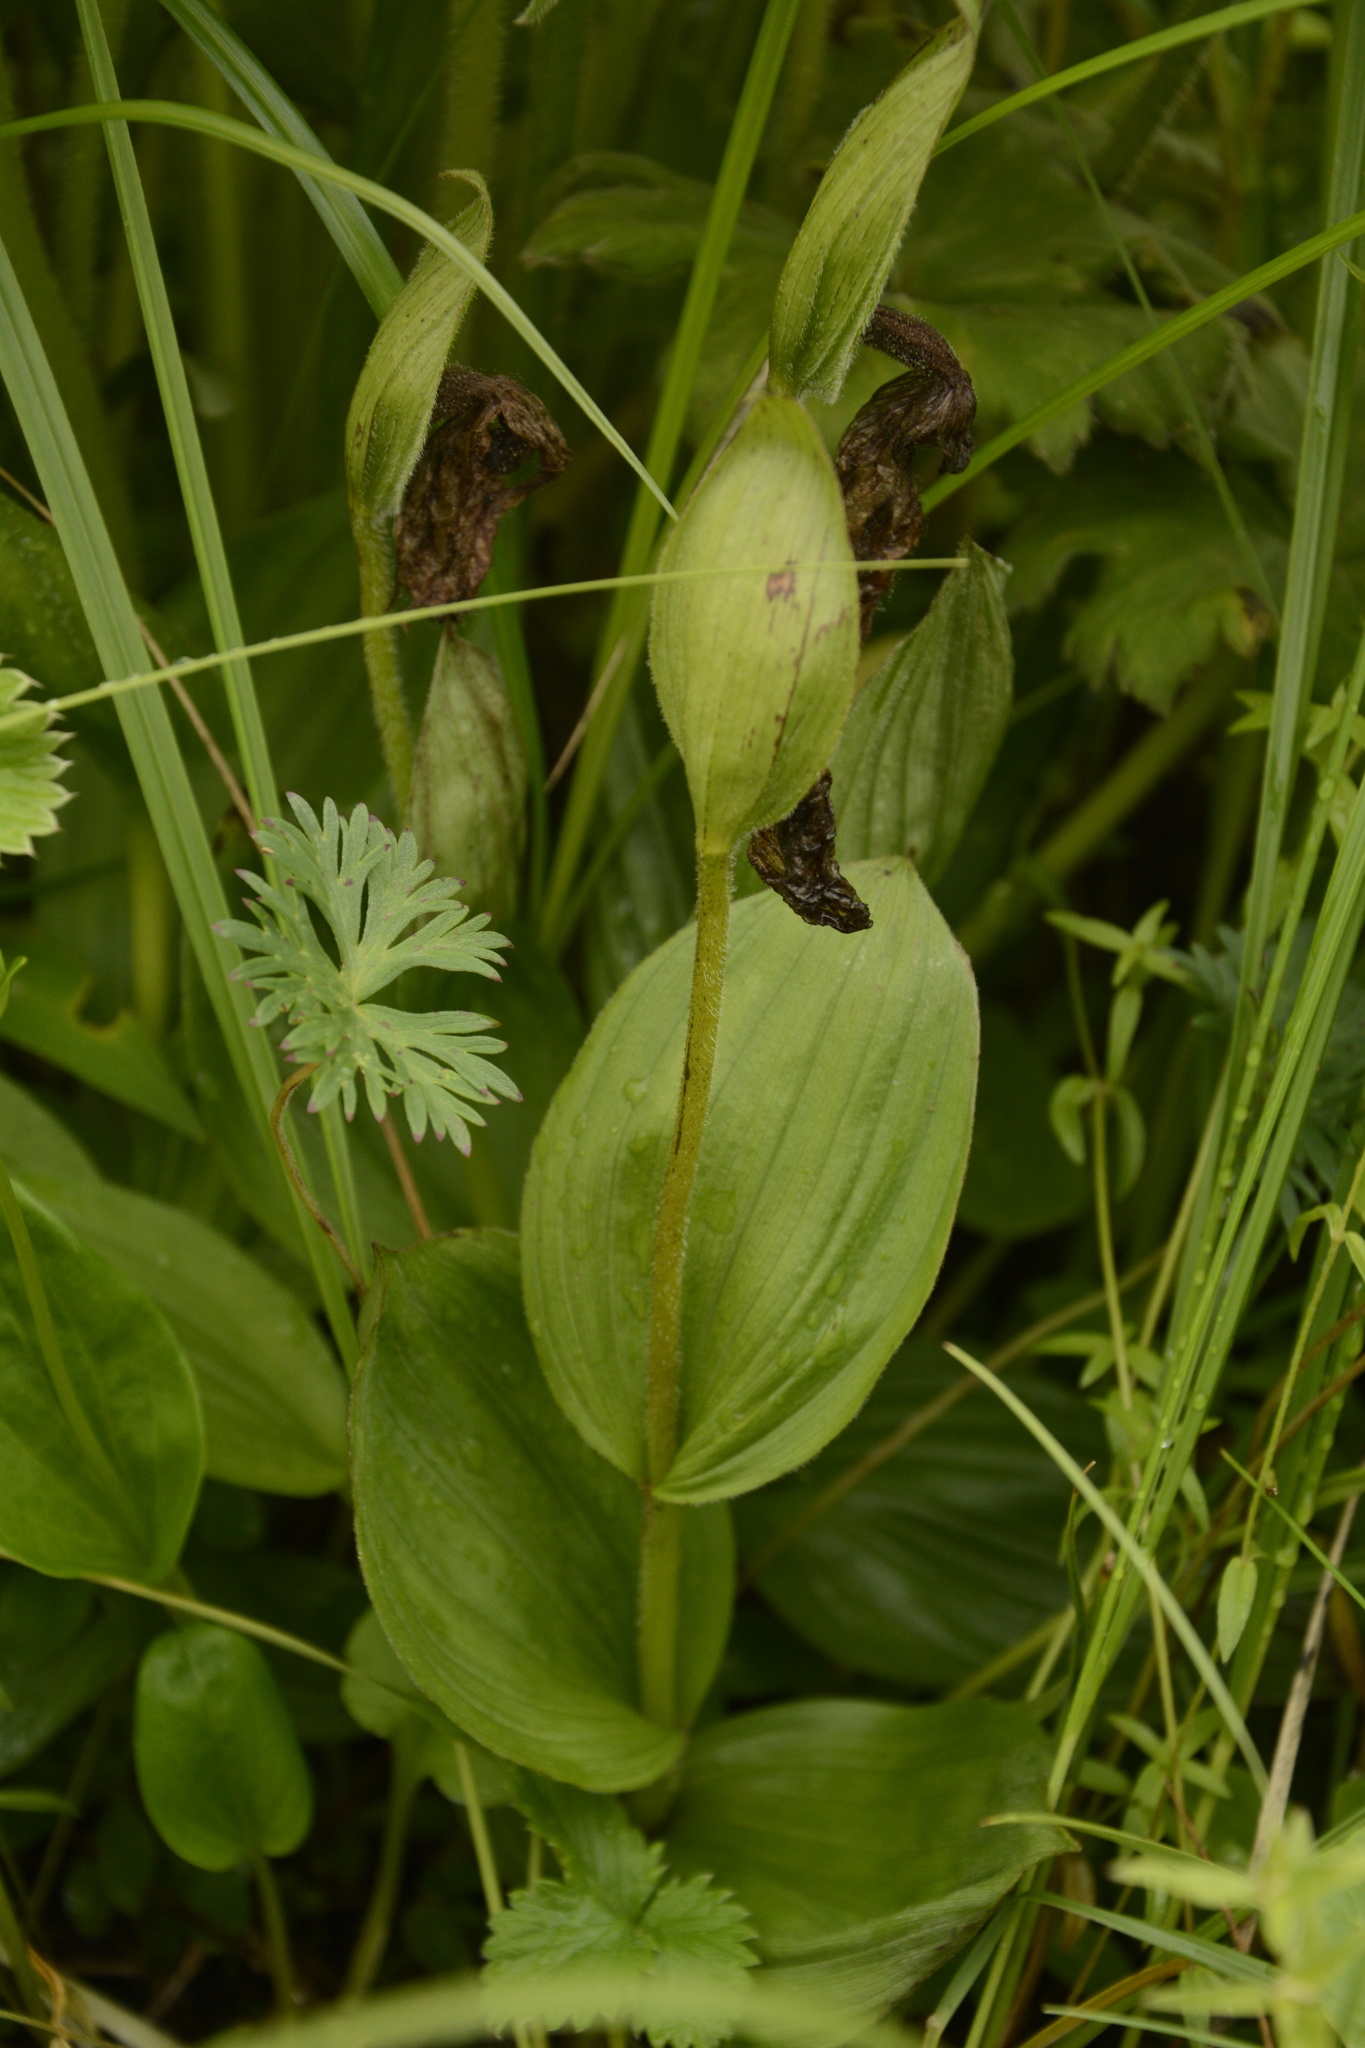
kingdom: Plantae
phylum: Tracheophyta
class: Liliopsida
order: Asparagales
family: Orchidaceae
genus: Cypripedium
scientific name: Cypripedium himalaicum
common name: Himalayan cypripedium
